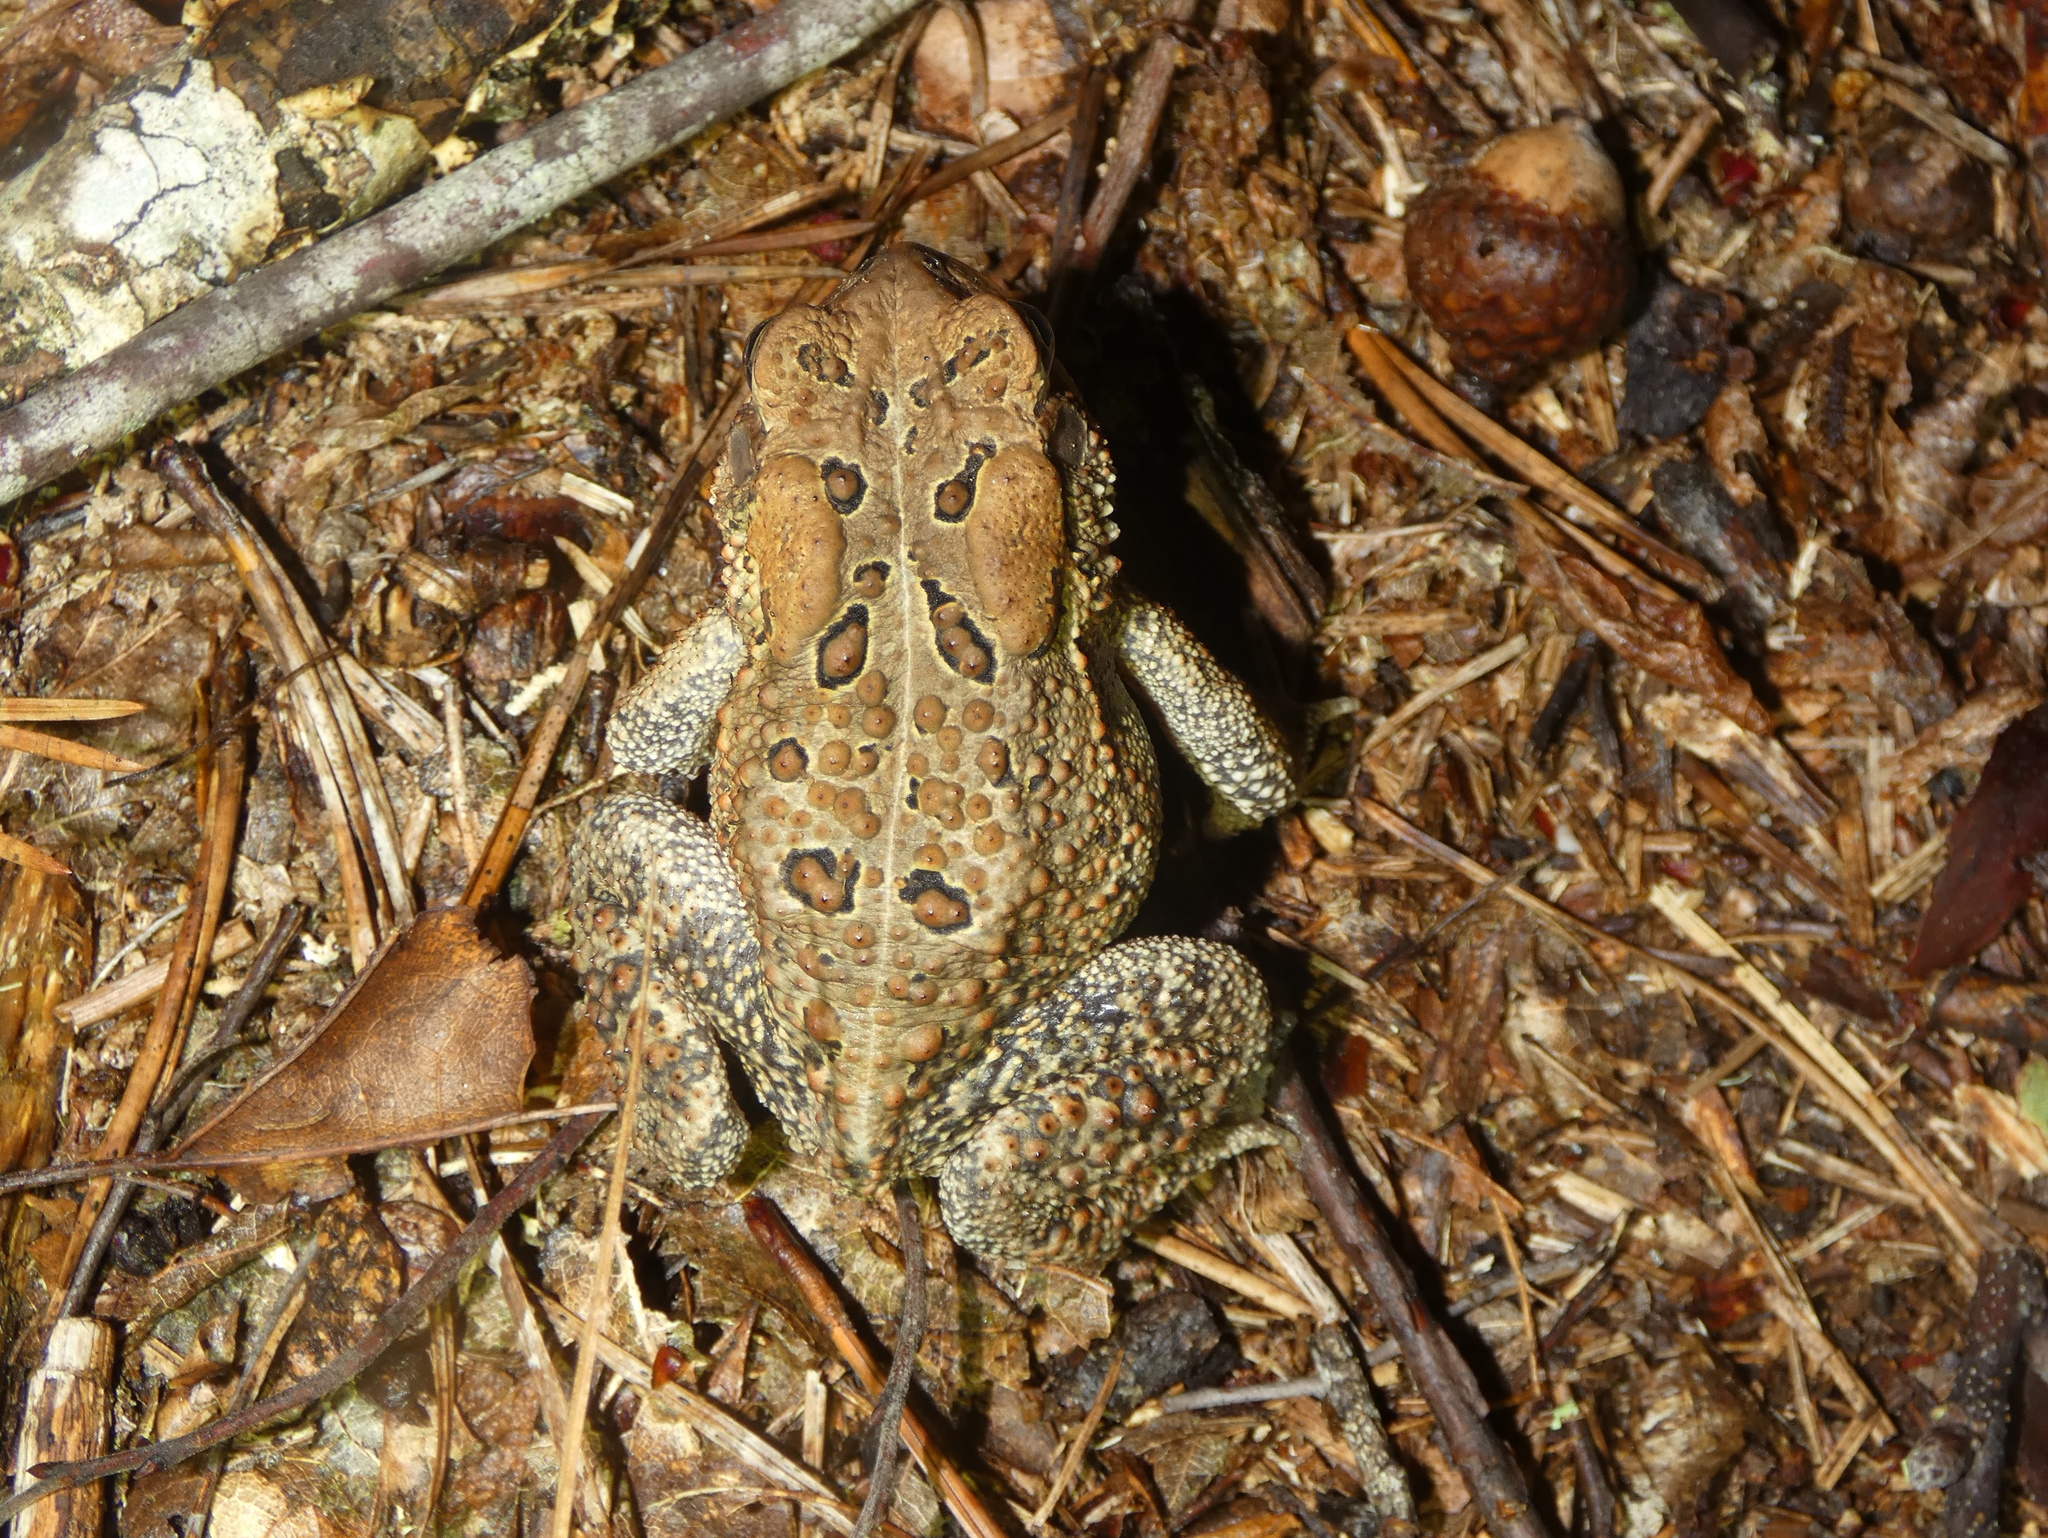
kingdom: Animalia
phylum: Chordata
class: Amphibia
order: Anura
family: Bufonidae
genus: Anaxyrus
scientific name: Anaxyrus americanus
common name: American toad
